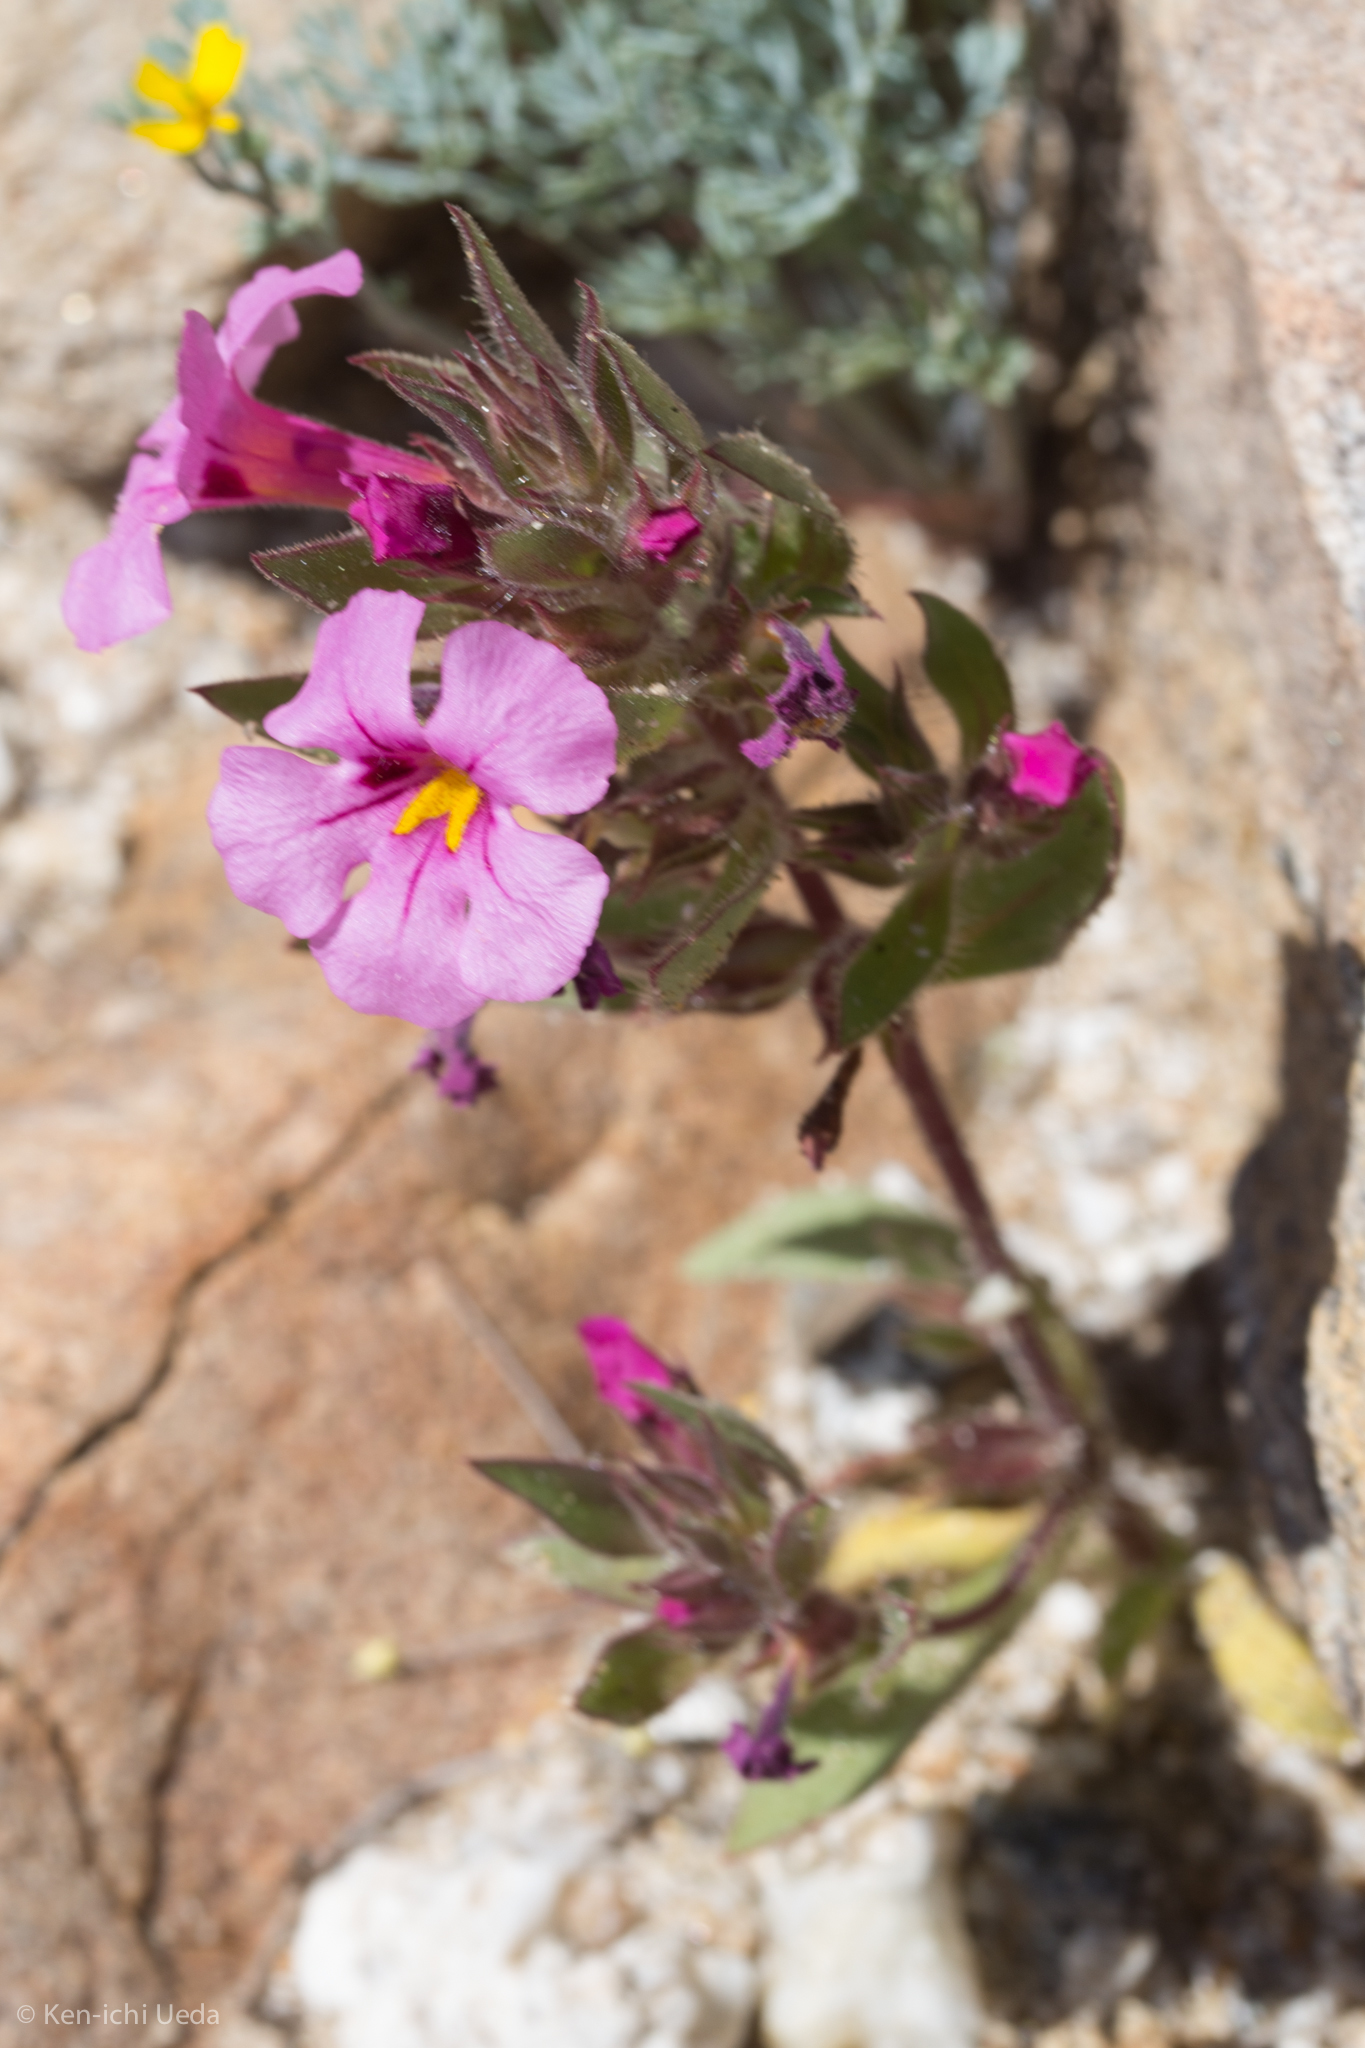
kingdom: Plantae
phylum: Tracheophyta
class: Magnoliopsida
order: Lamiales
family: Phrymaceae
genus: Diplacus
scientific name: Diplacus bigelovii
